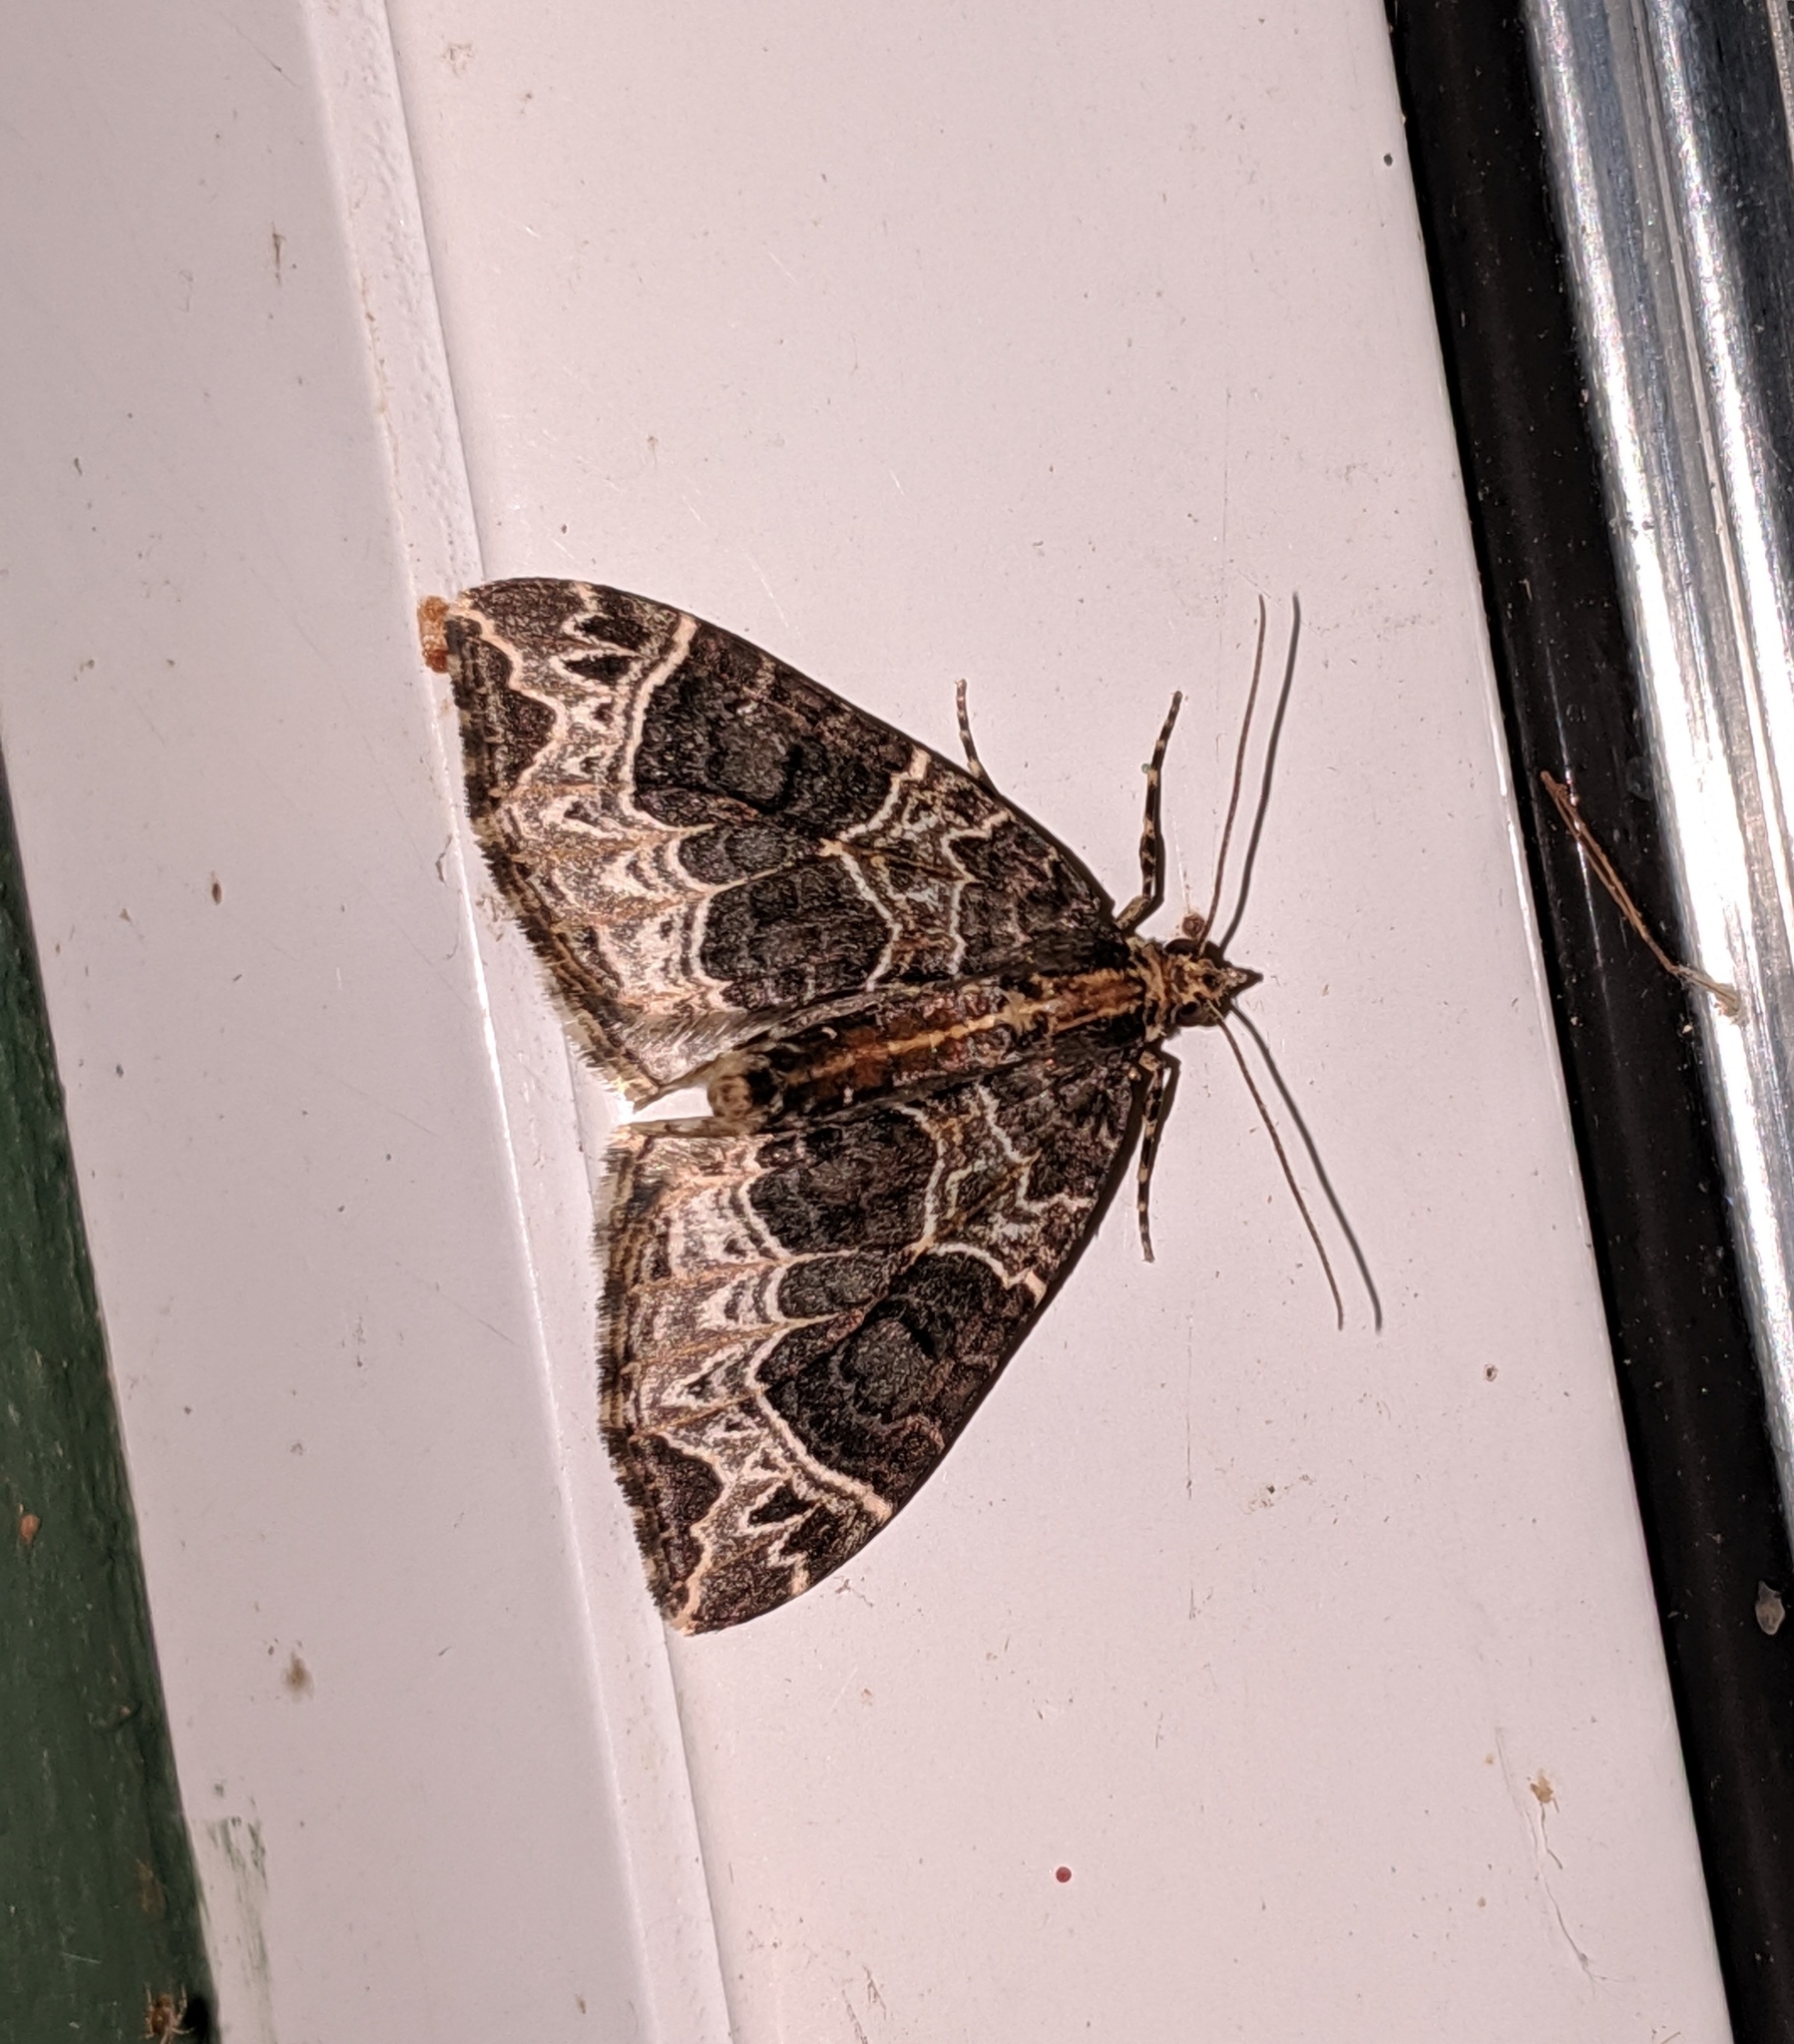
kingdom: Animalia
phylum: Arthropoda
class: Insecta
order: Lepidoptera
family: Geometridae
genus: Ecliptopera
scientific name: Ecliptopera silaceata
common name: Small phoenix
